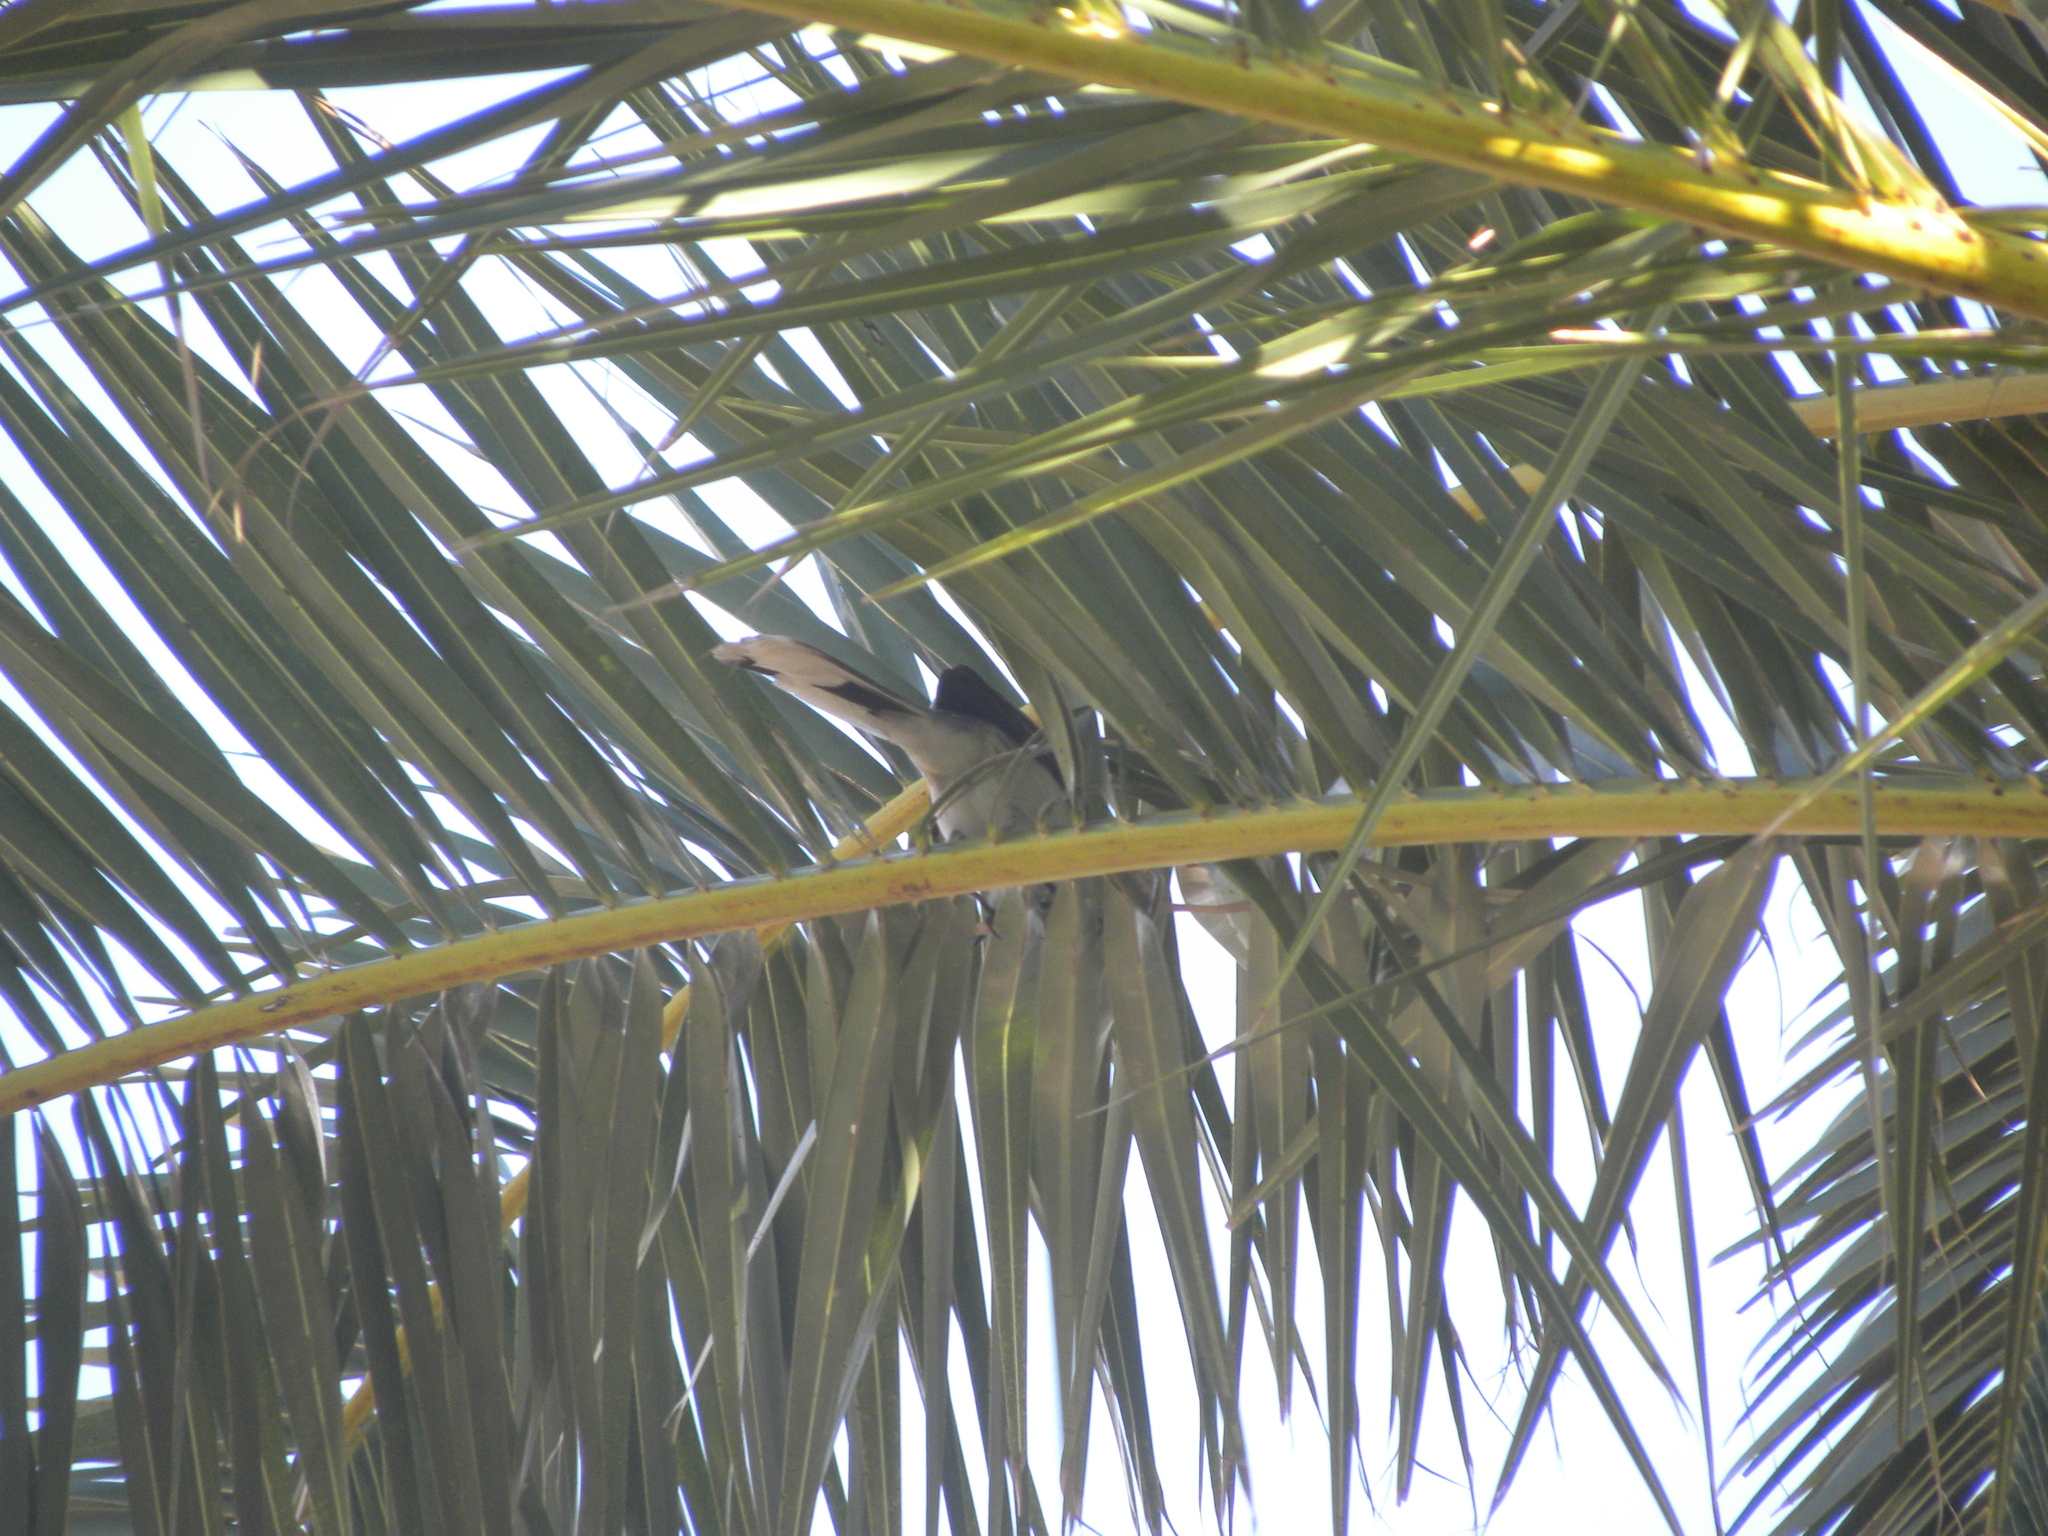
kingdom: Animalia
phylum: Chordata
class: Aves
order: Passeriformes
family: Mimidae
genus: Mimus
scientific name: Mimus gilvus
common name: Tropical mockingbird
